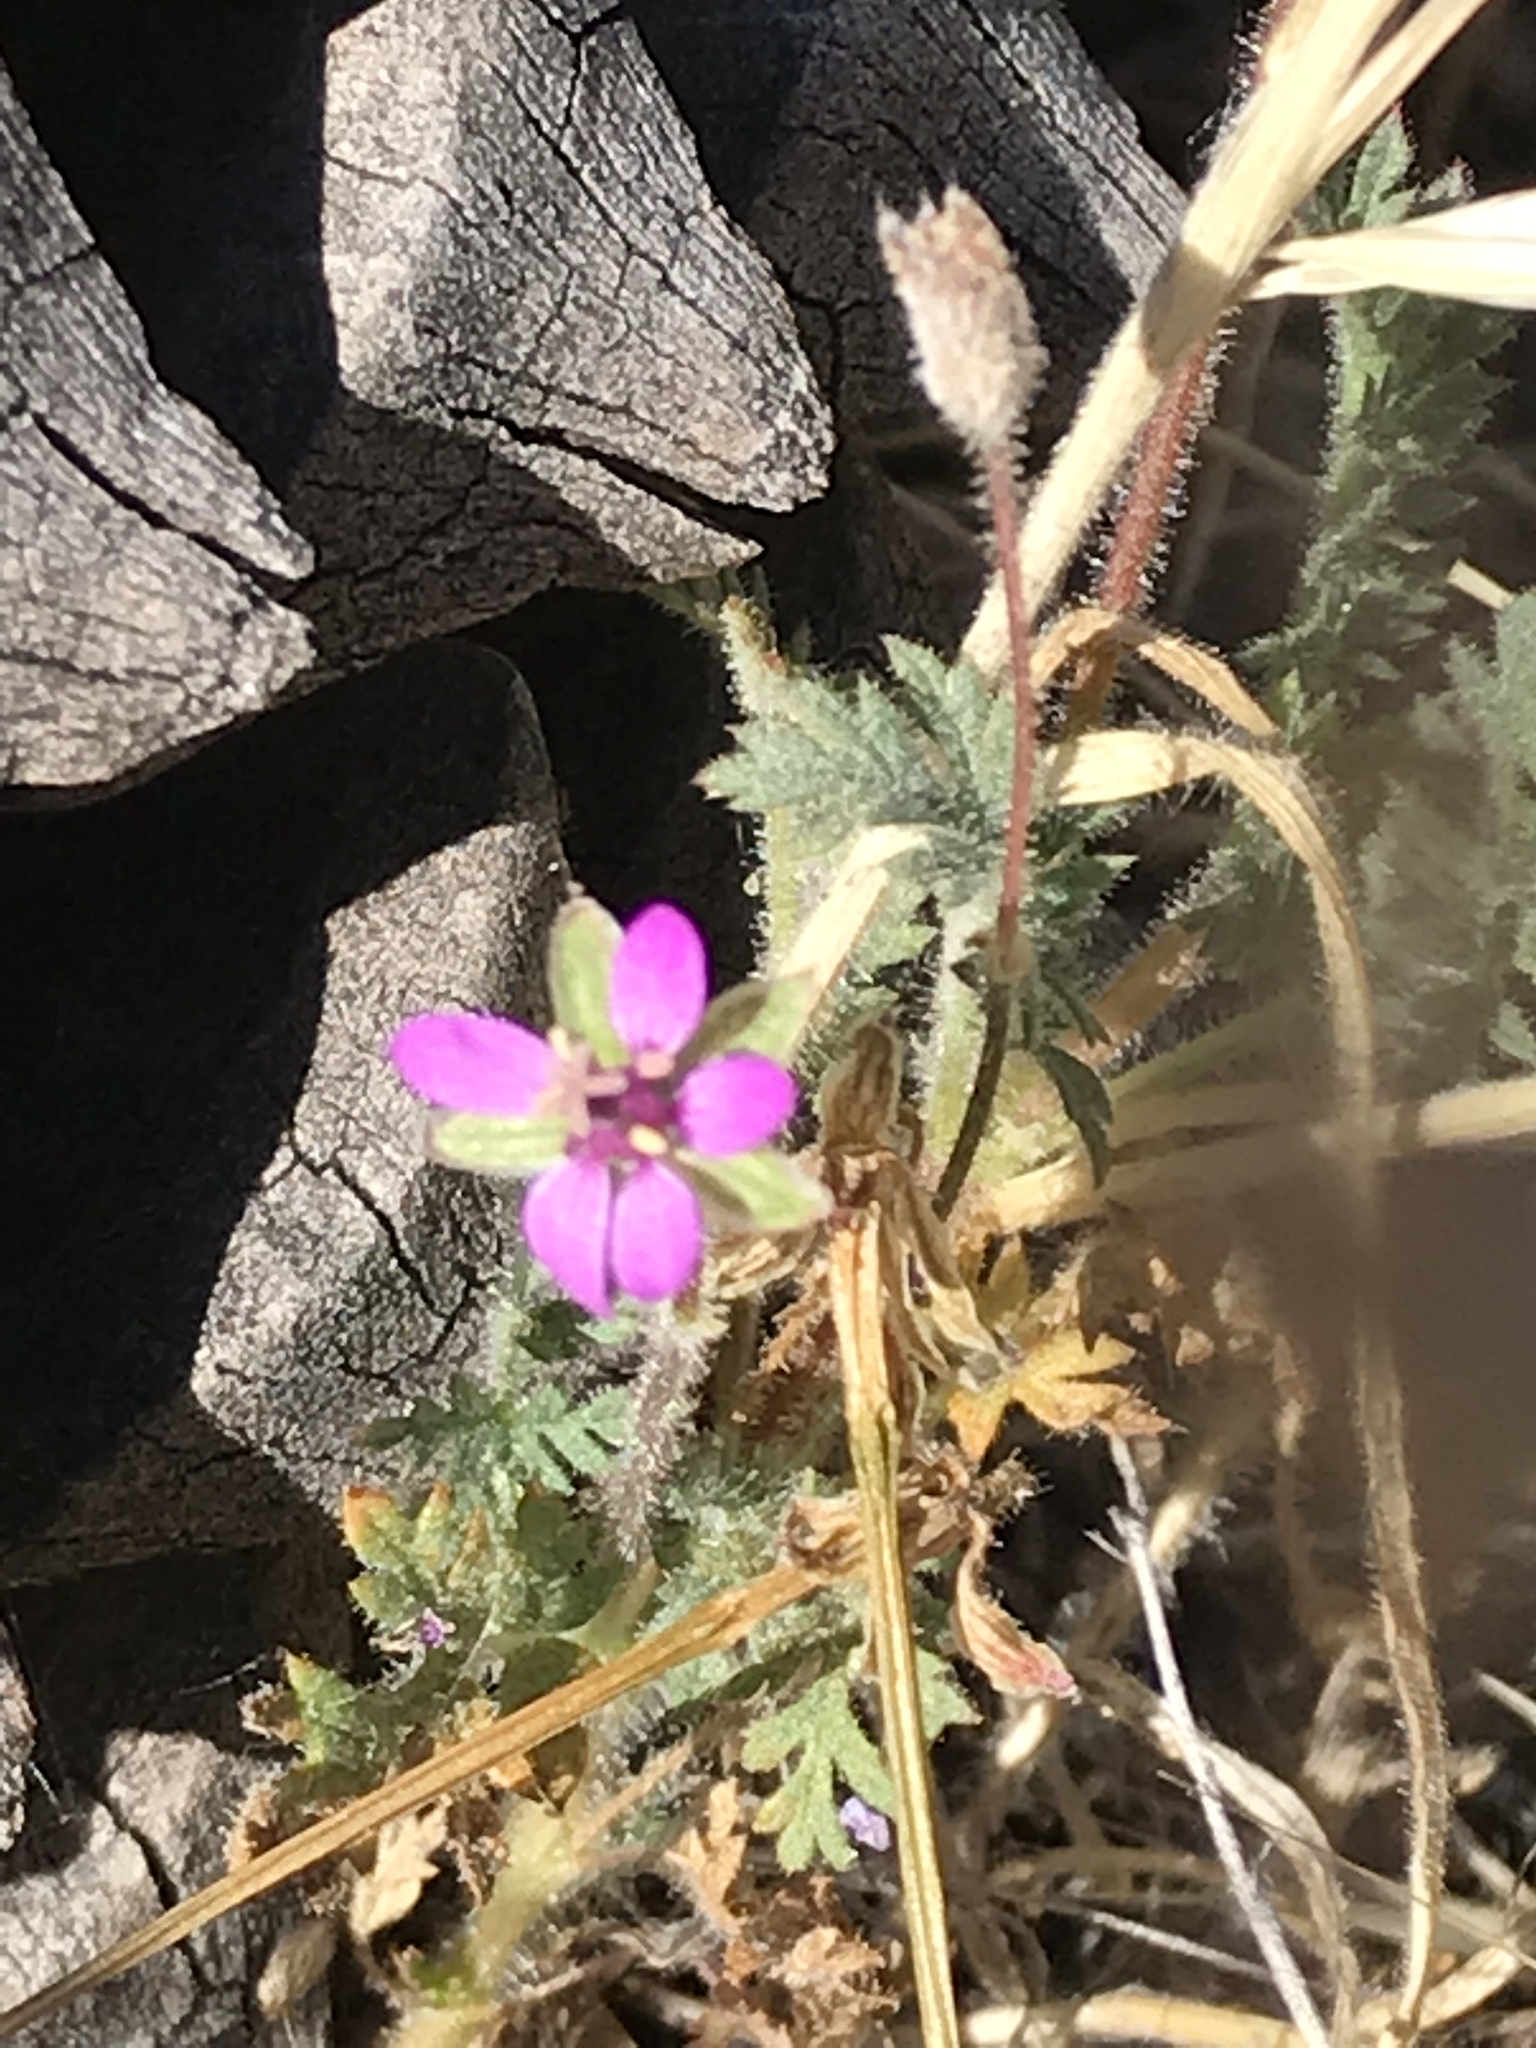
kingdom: Plantae
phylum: Tracheophyta
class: Magnoliopsida
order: Geraniales
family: Geraniaceae
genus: Erodium
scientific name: Erodium cicutarium
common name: Common stork's-bill
